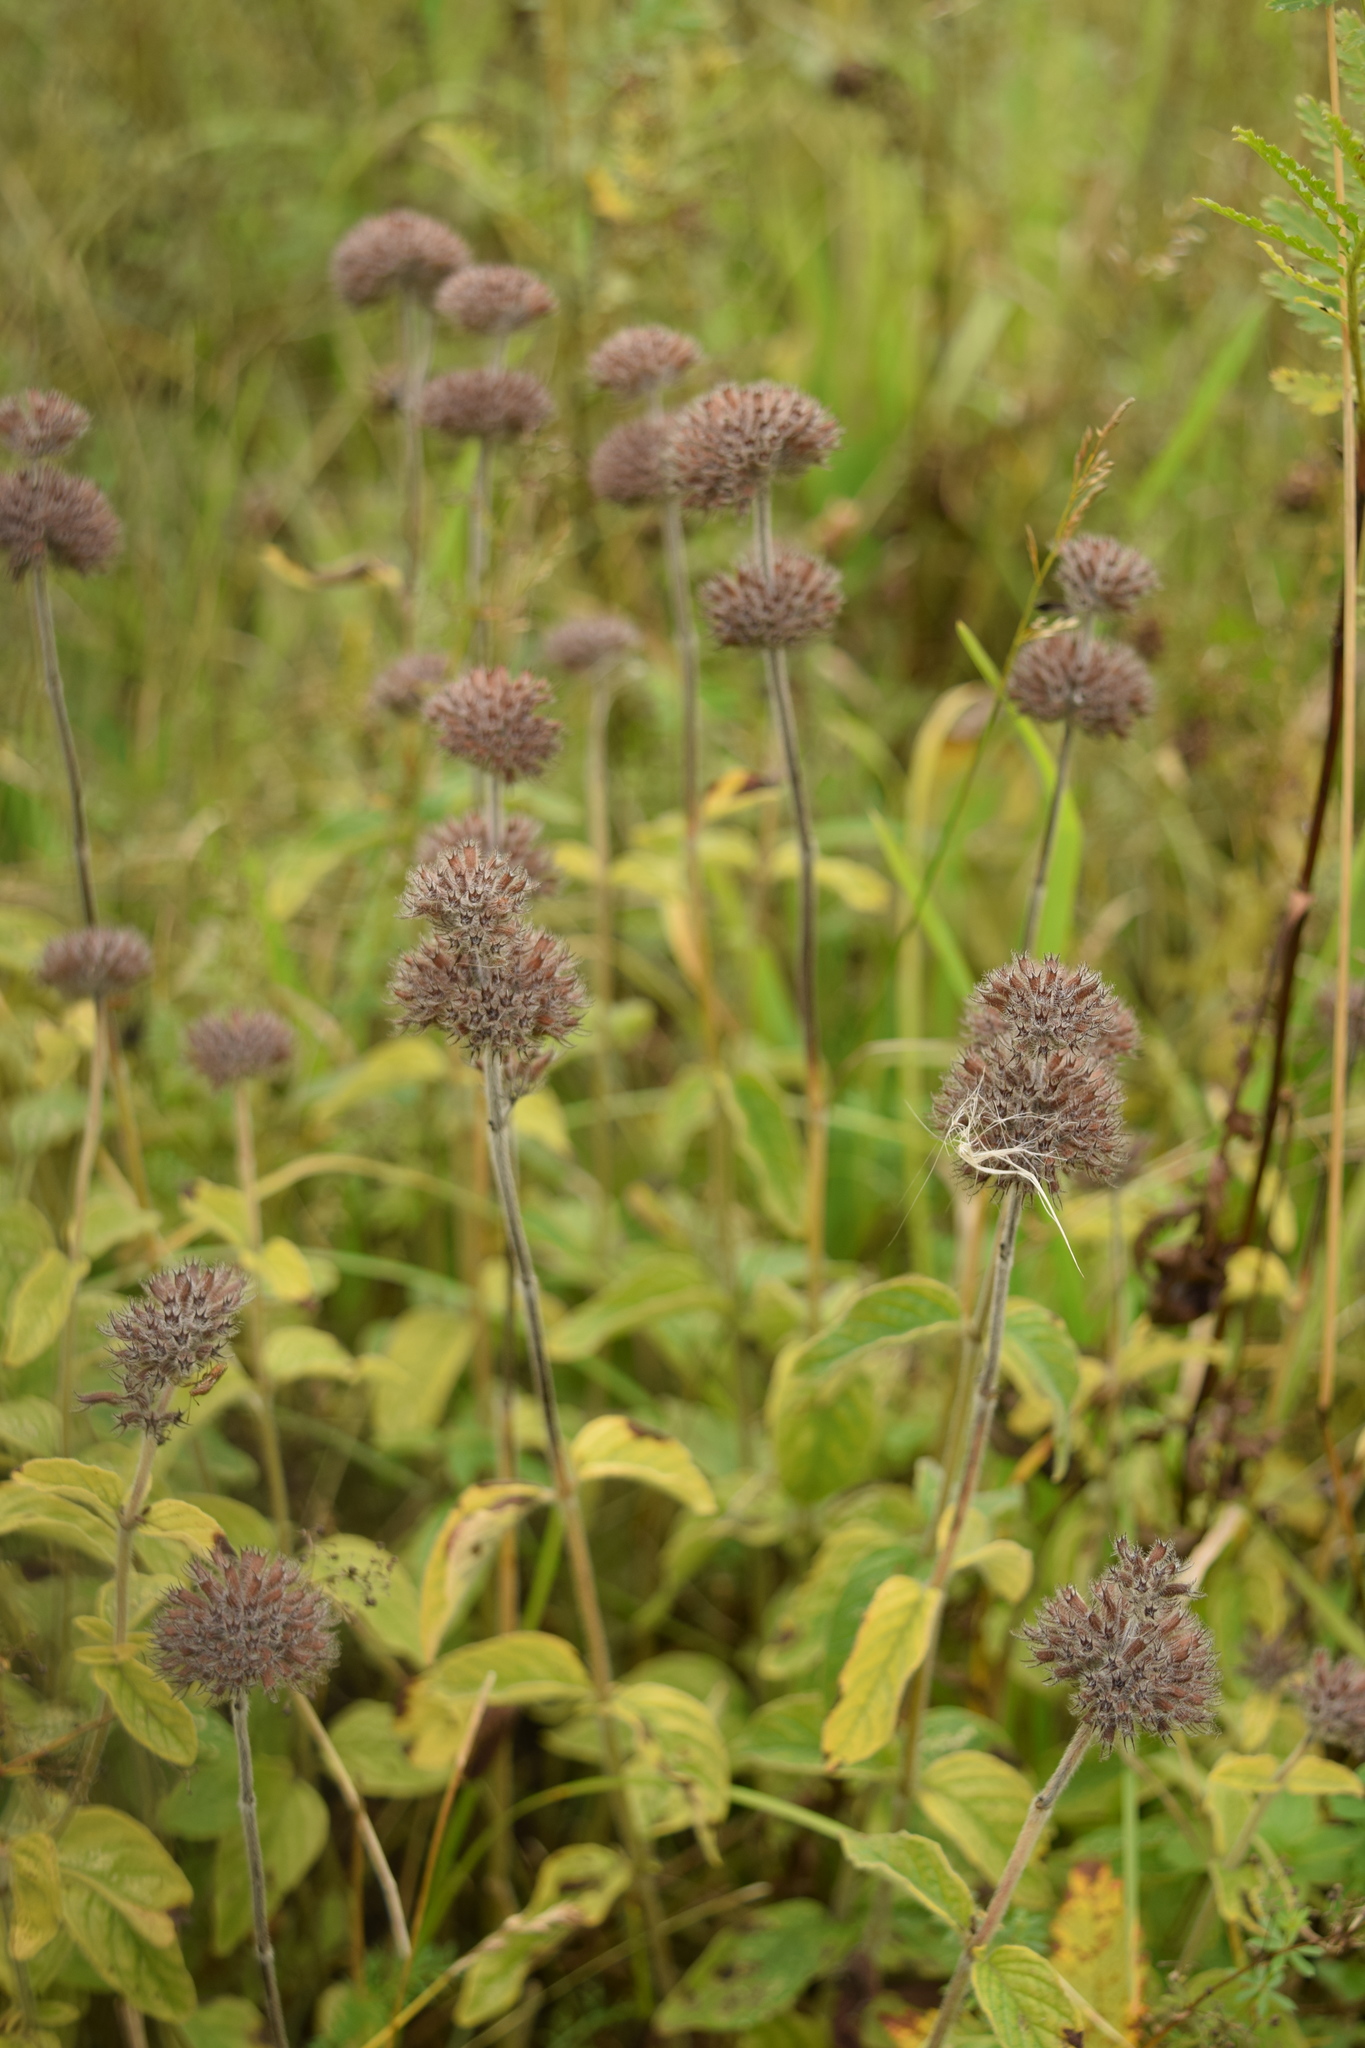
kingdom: Plantae
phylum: Tracheophyta
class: Magnoliopsida
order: Lamiales
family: Lamiaceae
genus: Clinopodium
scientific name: Clinopodium vulgare
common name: Wild basil
